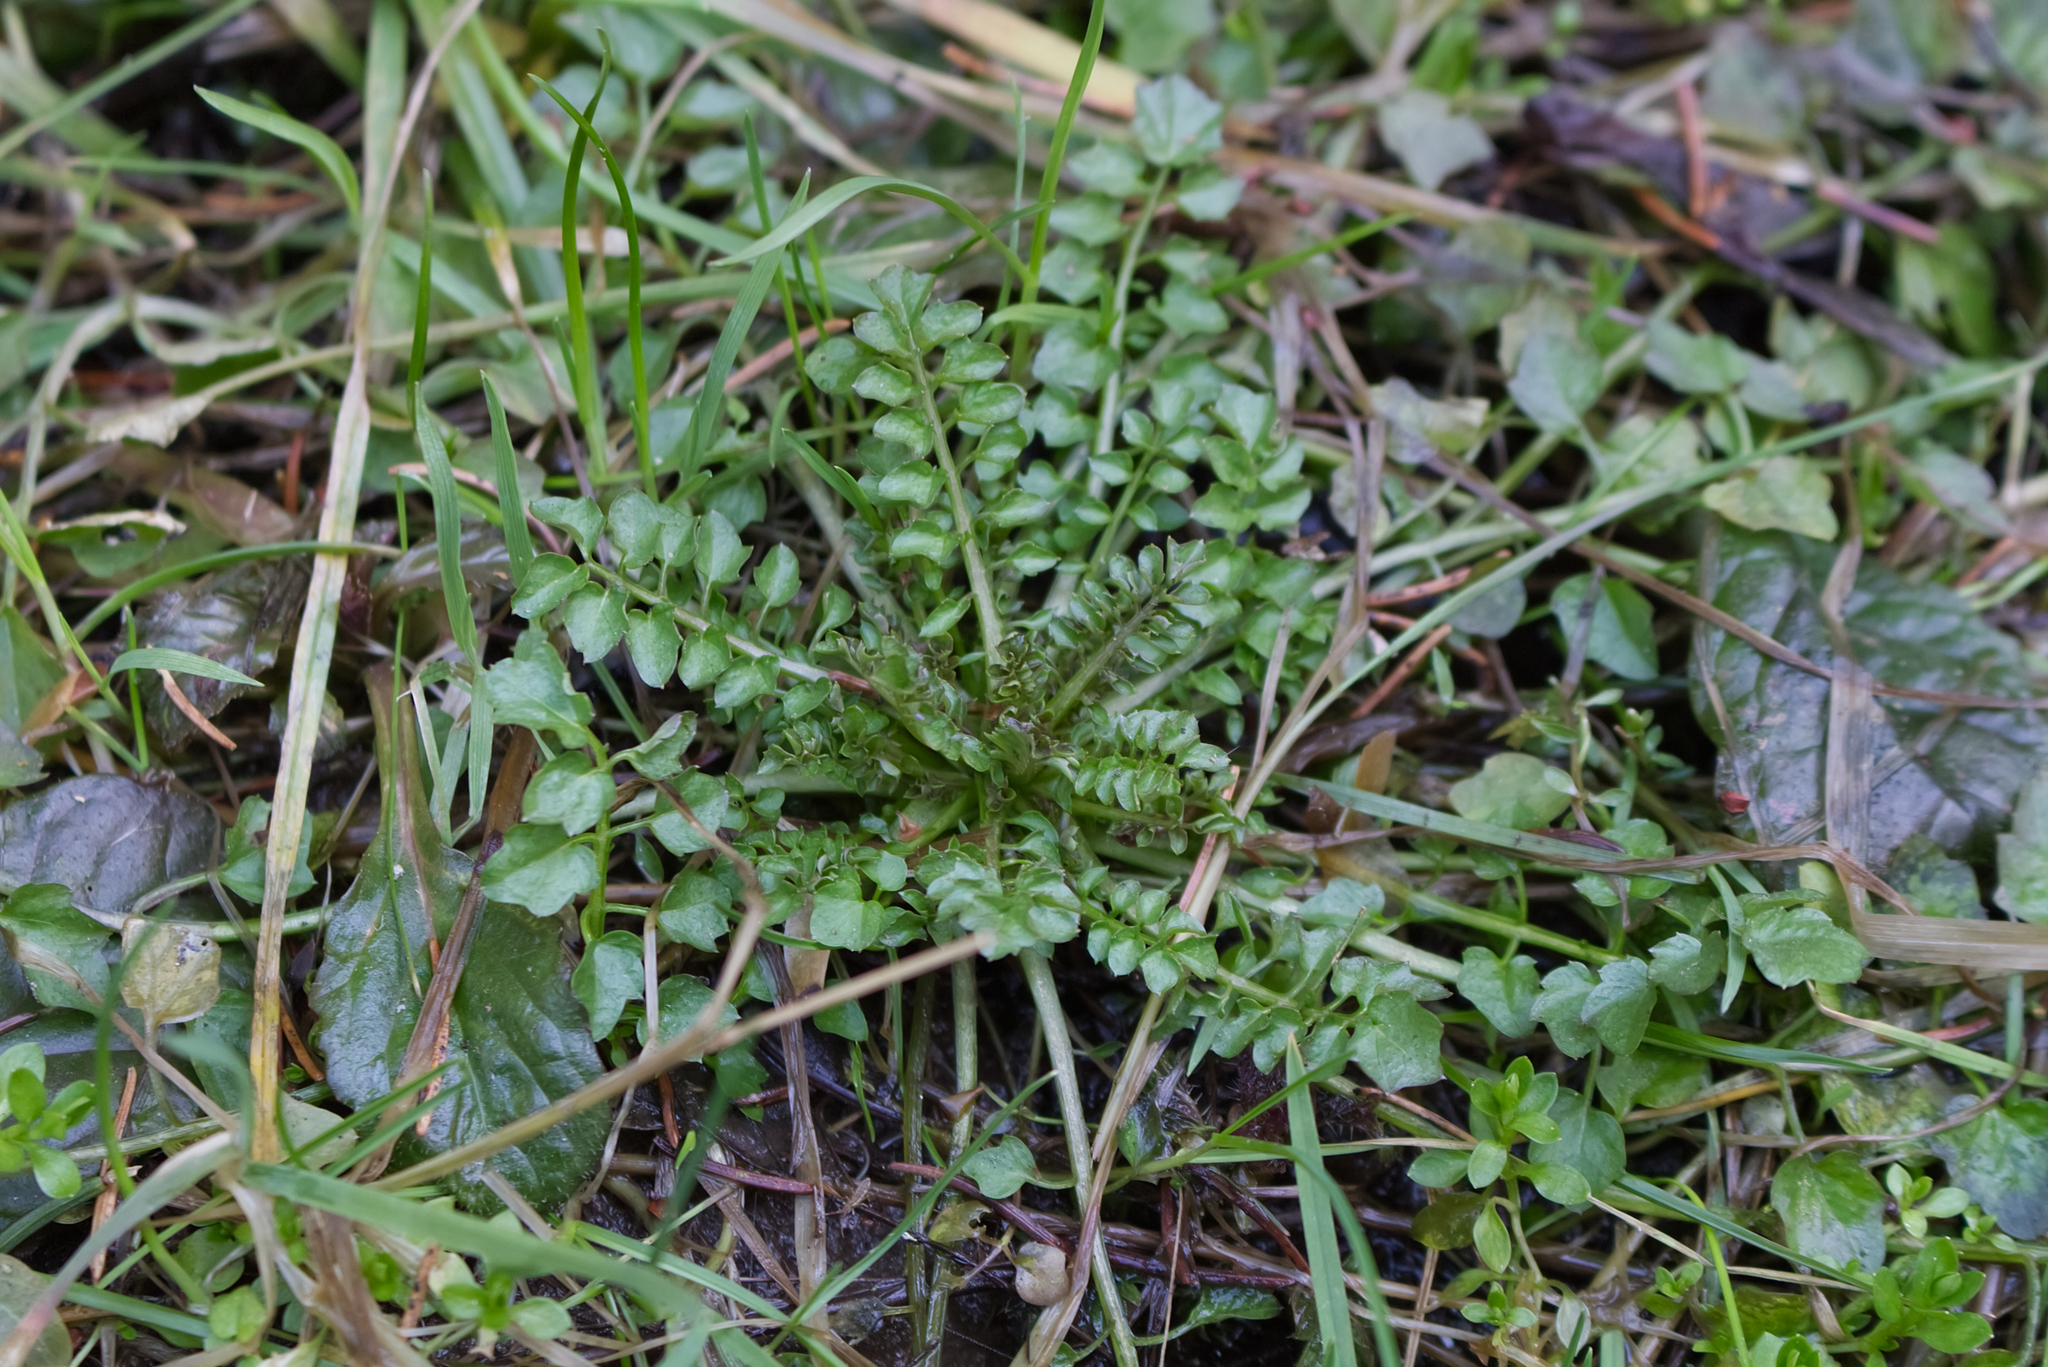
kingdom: Plantae
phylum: Tracheophyta
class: Magnoliopsida
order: Brassicales
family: Brassicaceae
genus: Cardamine
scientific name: Cardamine impatiens
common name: Narrow-leaved bitter-cress
